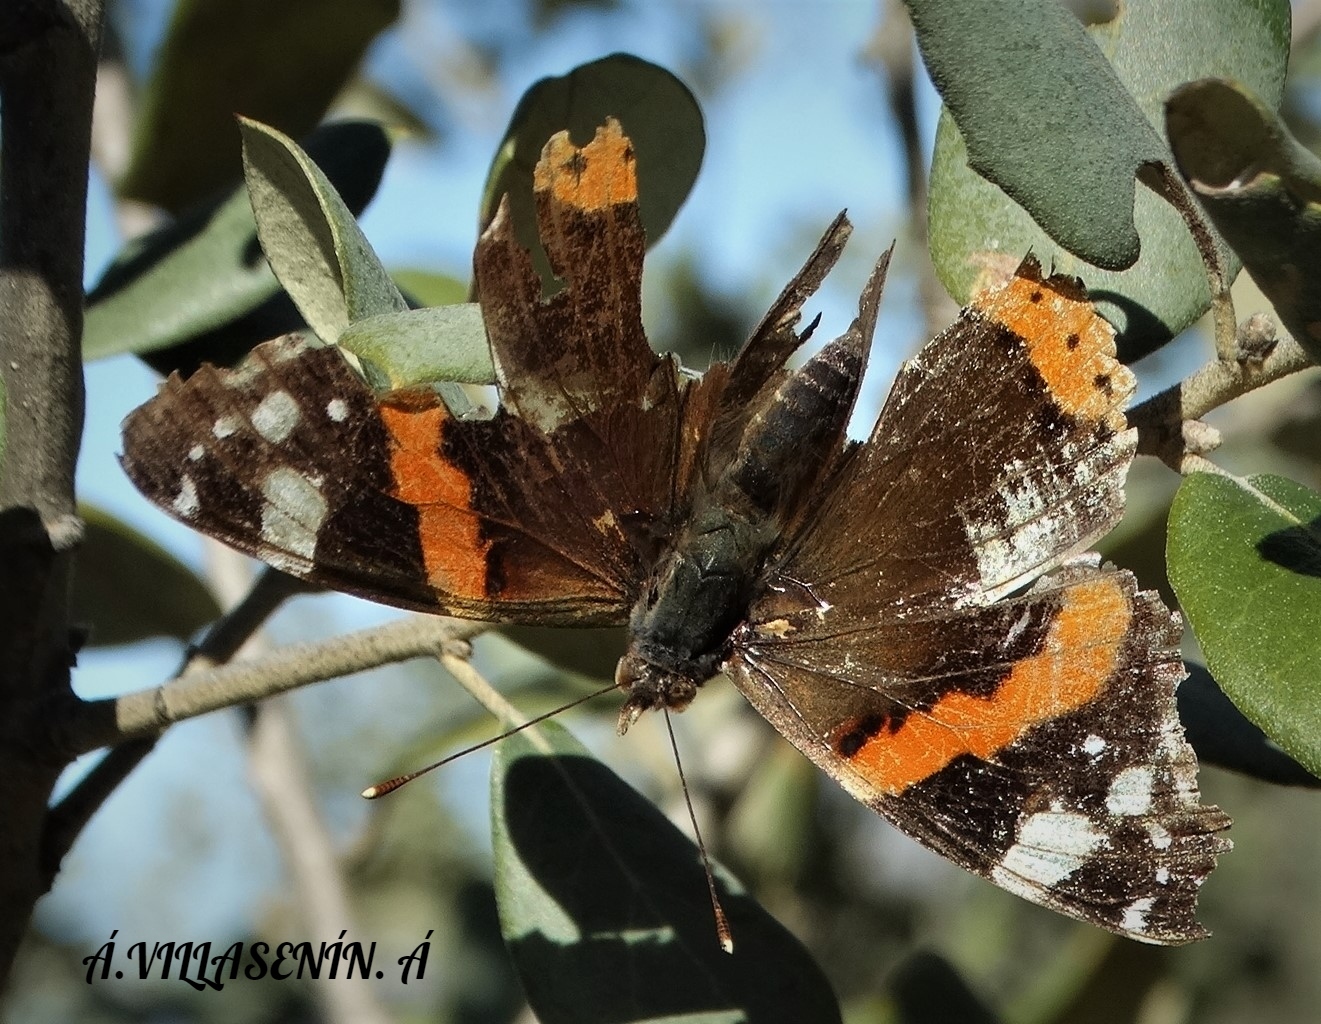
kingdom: Animalia
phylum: Arthropoda
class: Insecta
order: Lepidoptera
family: Nymphalidae
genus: Vanessa
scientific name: Vanessa atalanta
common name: Red admiral
